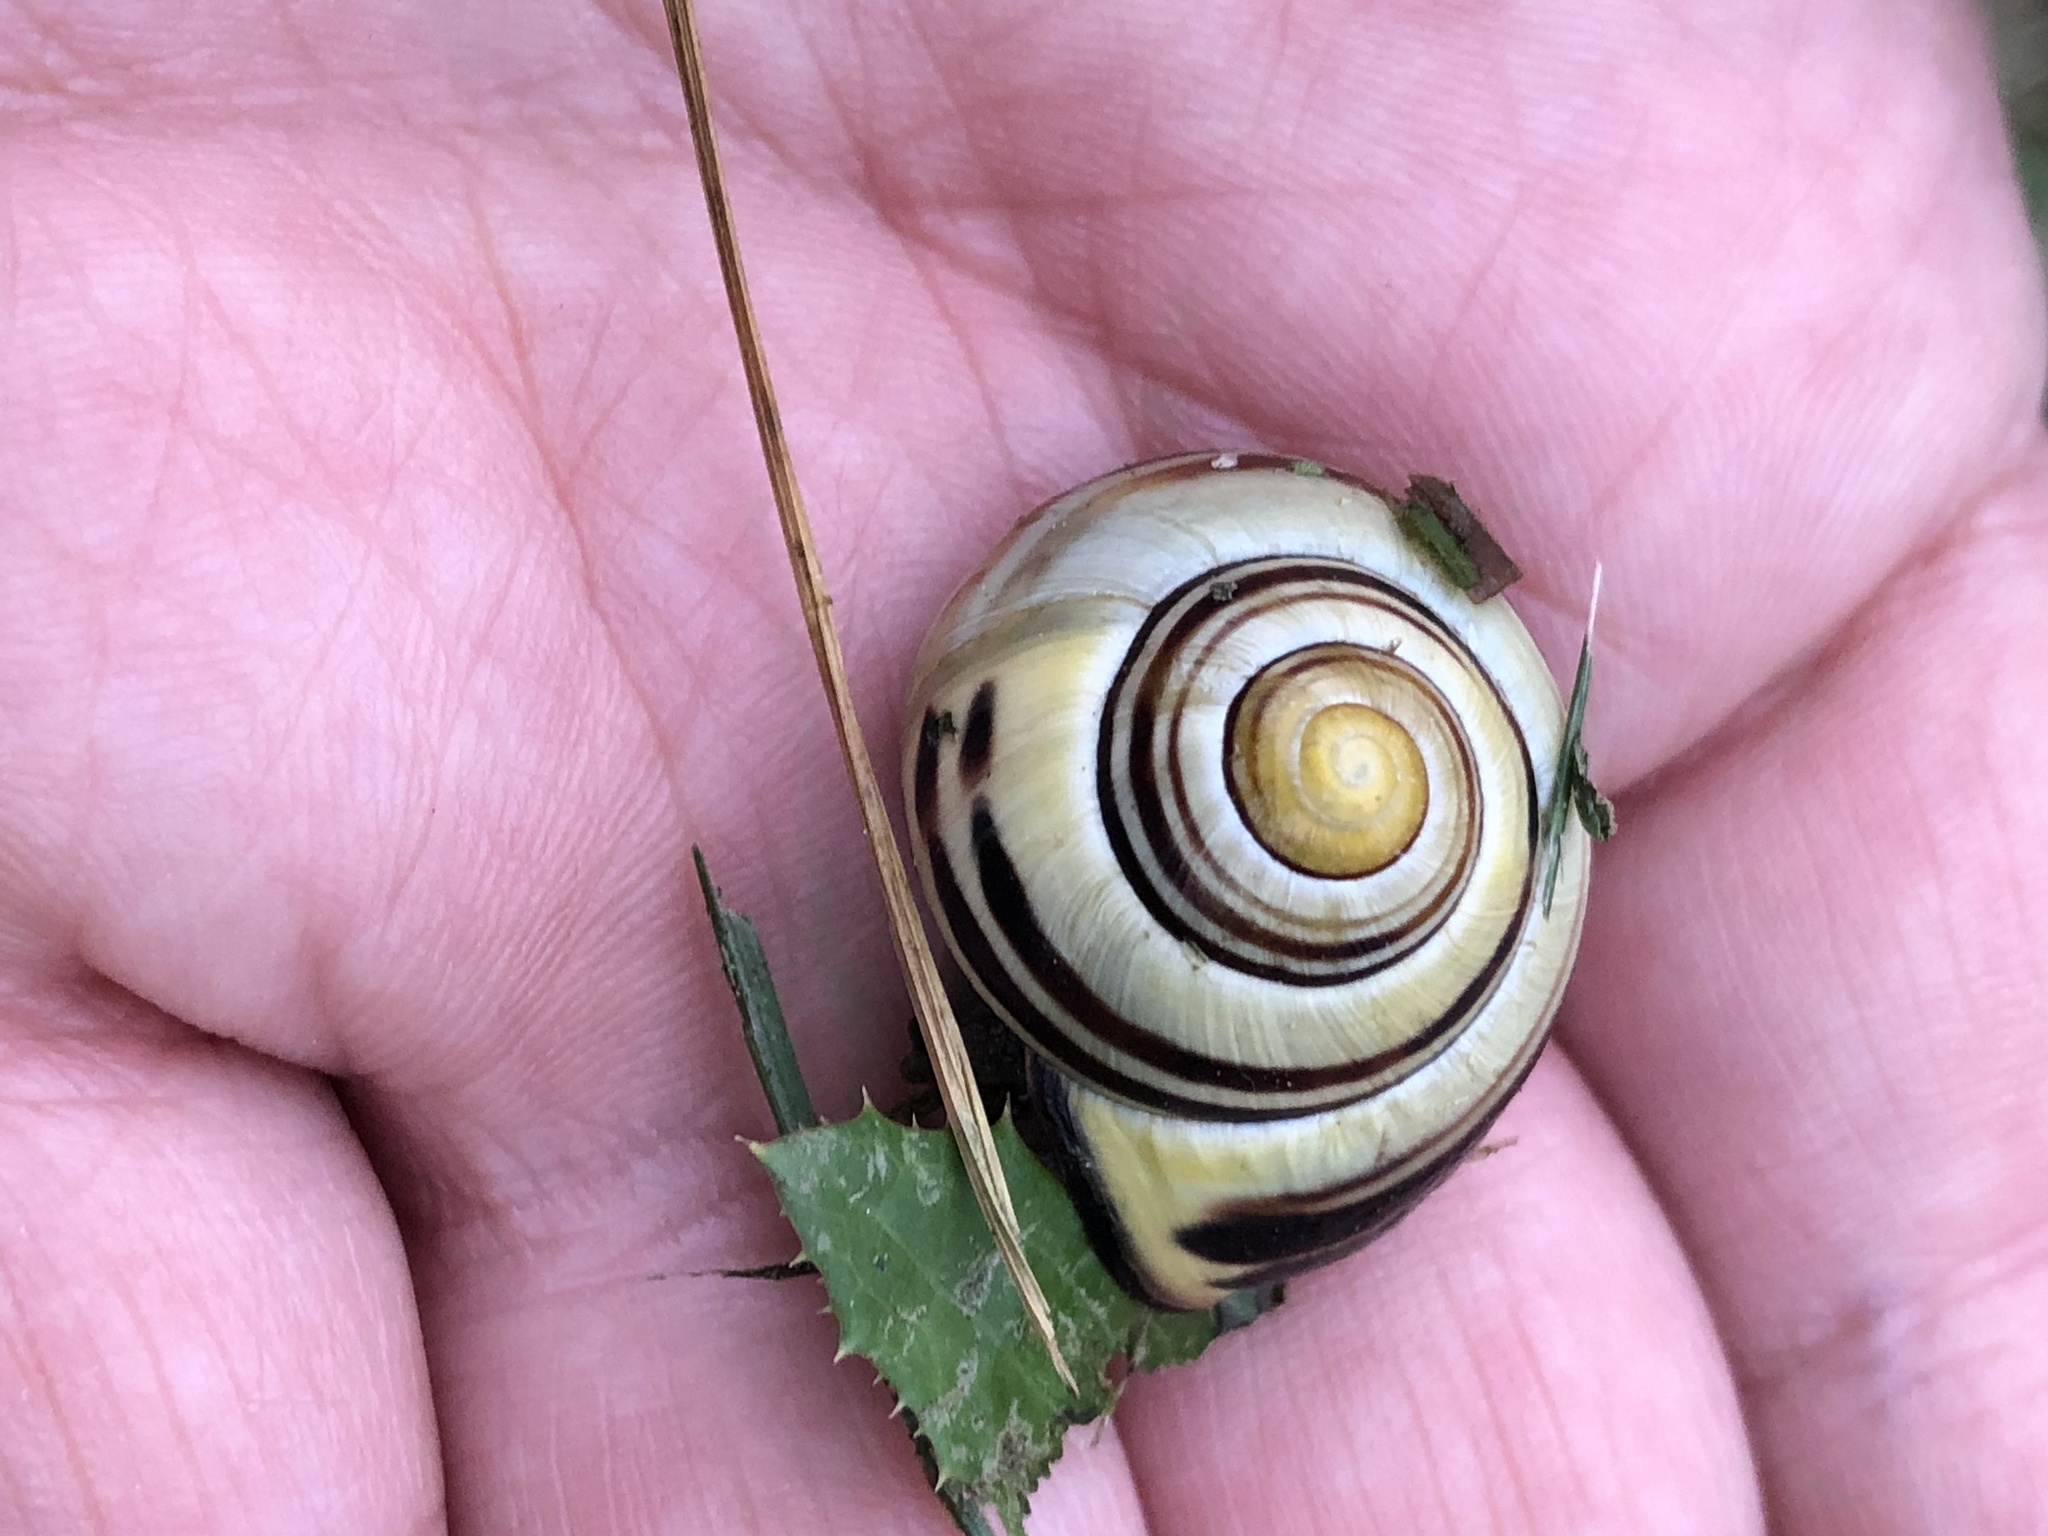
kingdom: Animalia
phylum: Mollusca
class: Gastropoda
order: Stylommatophora
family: Helicidae
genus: Cepaea
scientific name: Cepaea nemoralis
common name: Grovesnail
